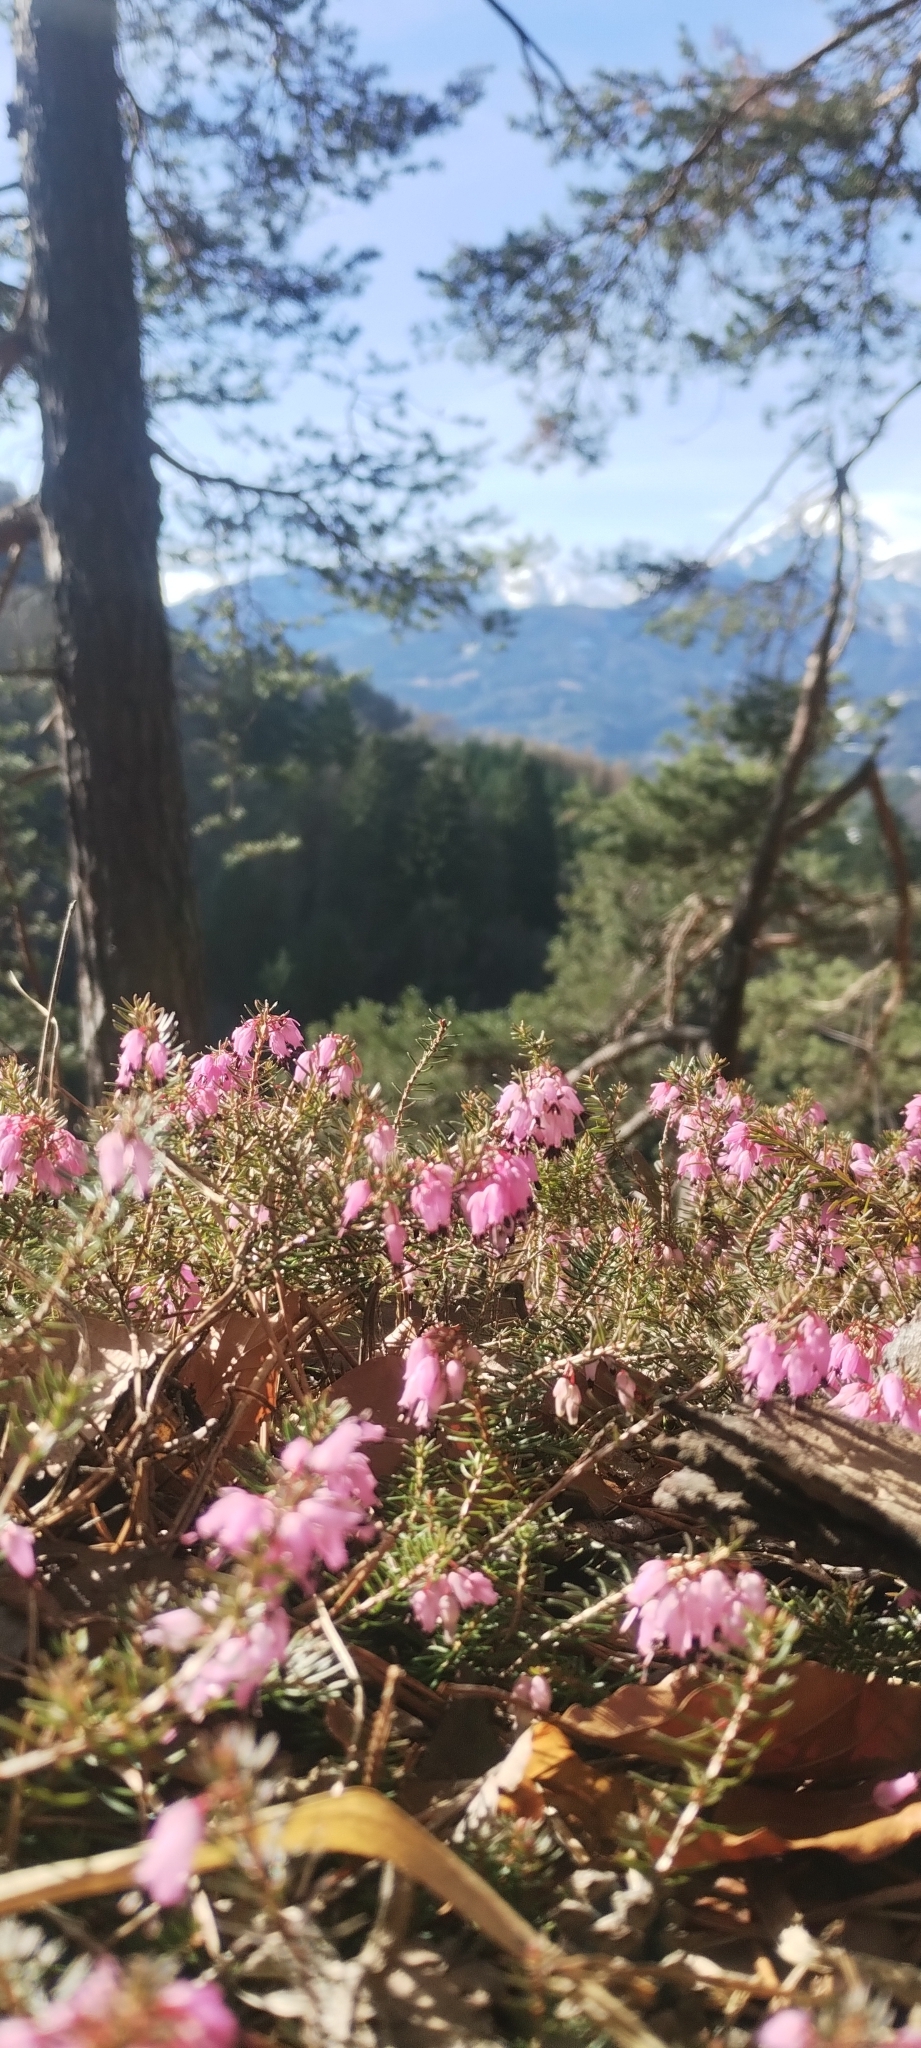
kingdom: Plantae
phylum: Tracheophyta
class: Magnoliopsida
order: Ericales
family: Ericaceae
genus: Erica
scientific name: Erica carnea
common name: Winter heath
